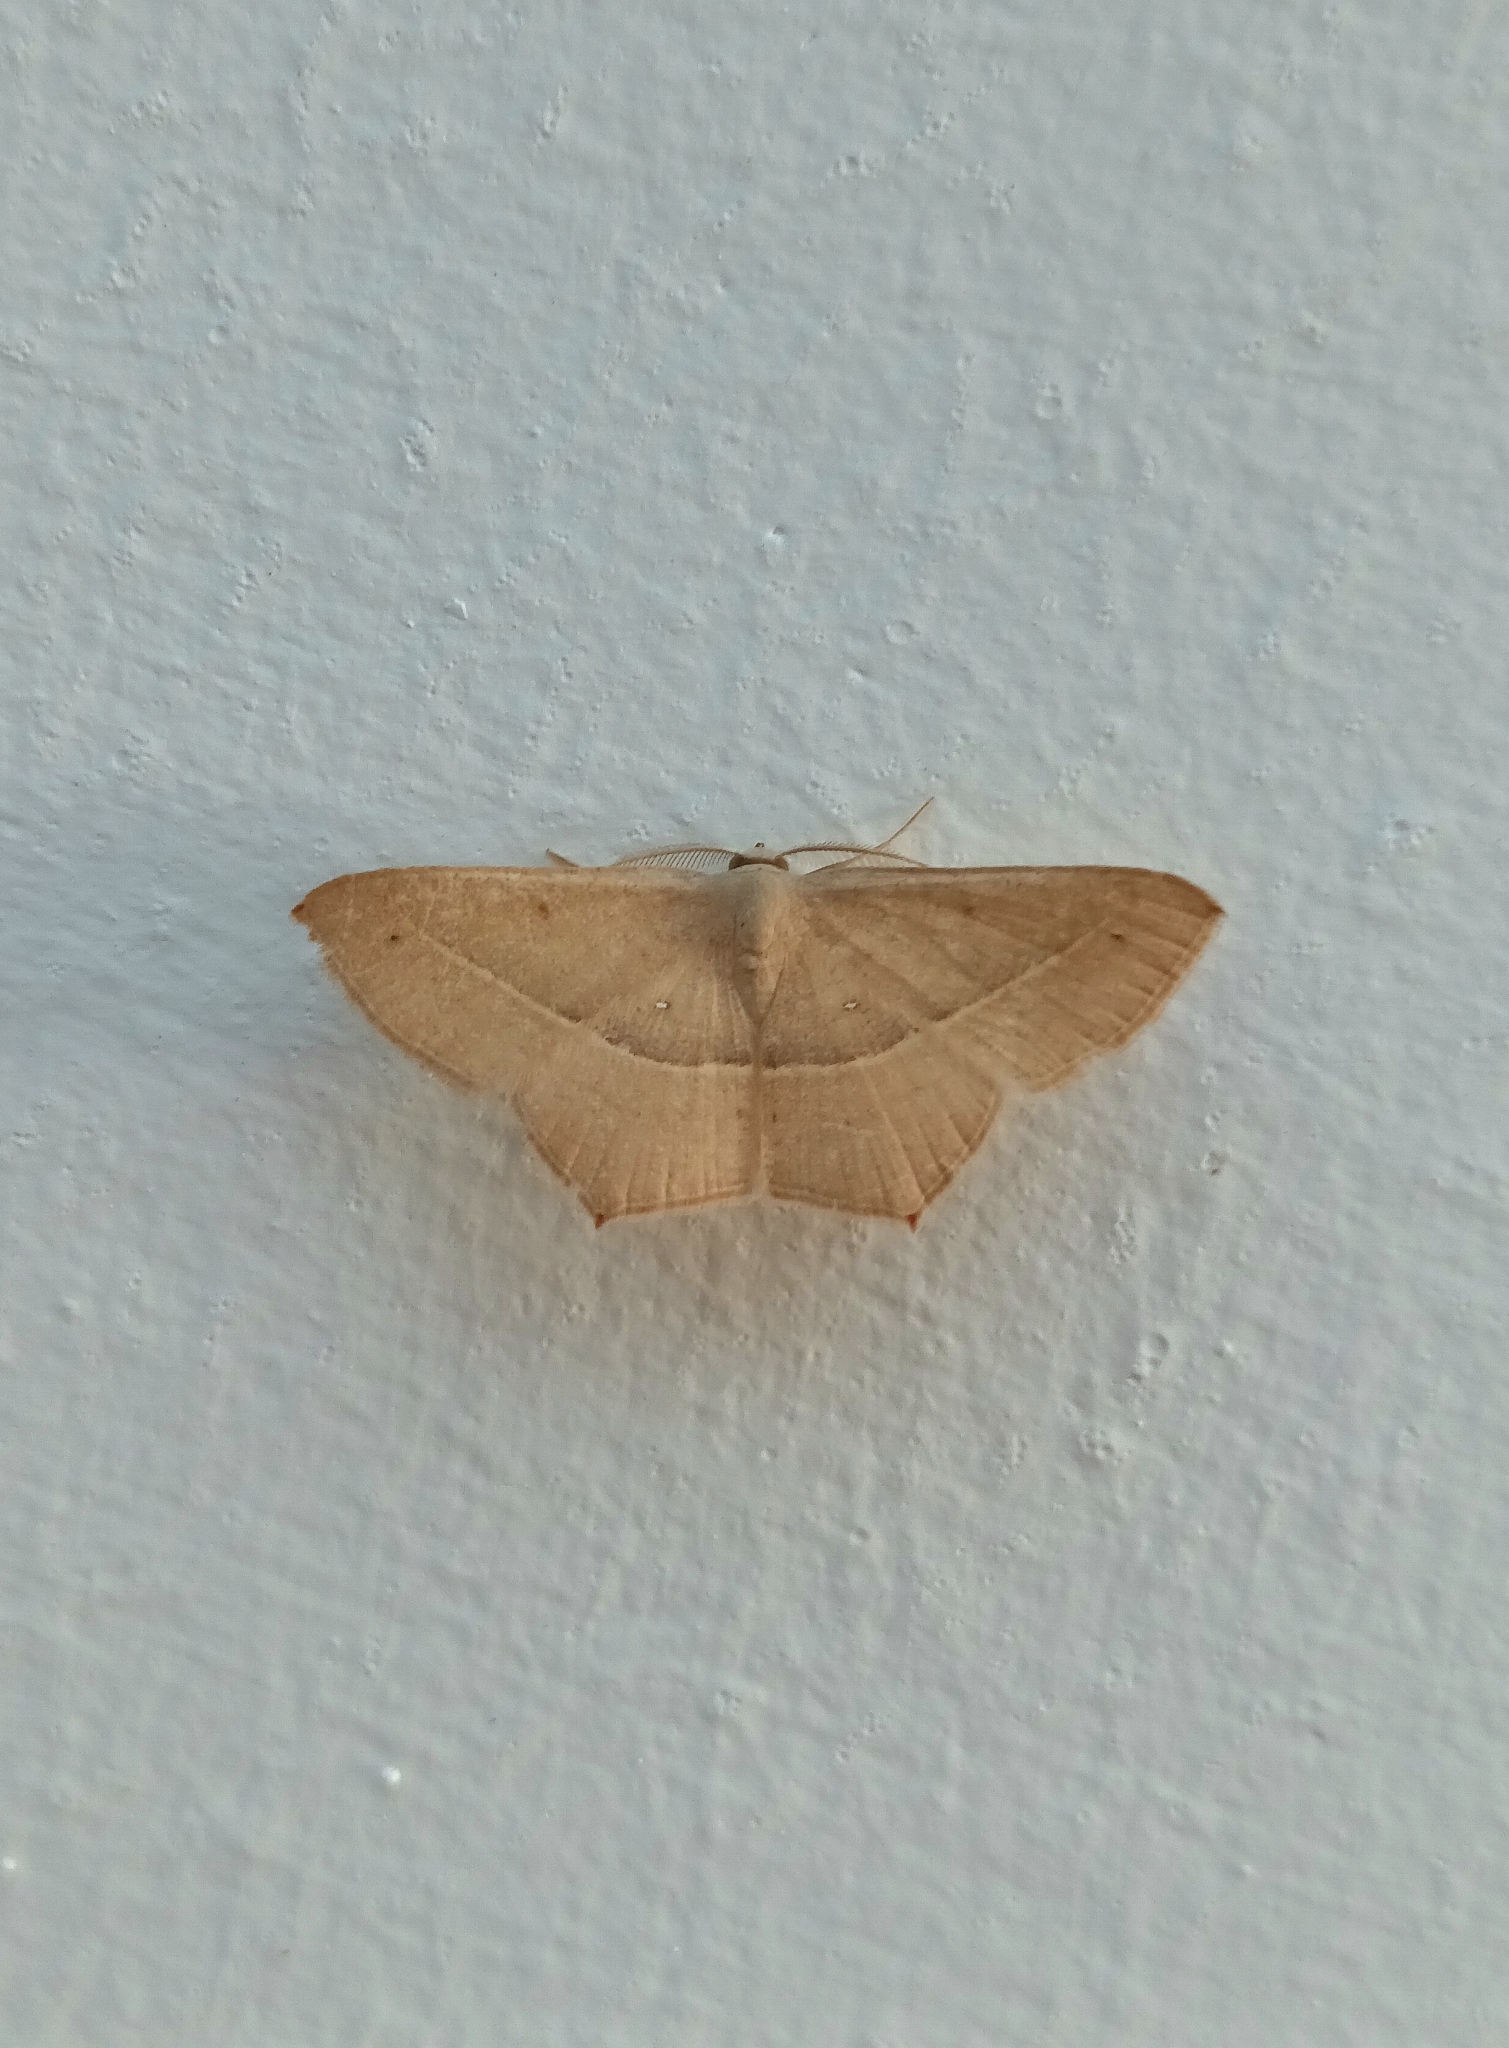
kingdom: Animalia
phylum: Arthropoda
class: Insecta
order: Lepidoptera
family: Geometridae
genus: Traminda
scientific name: Traminda mundissima
